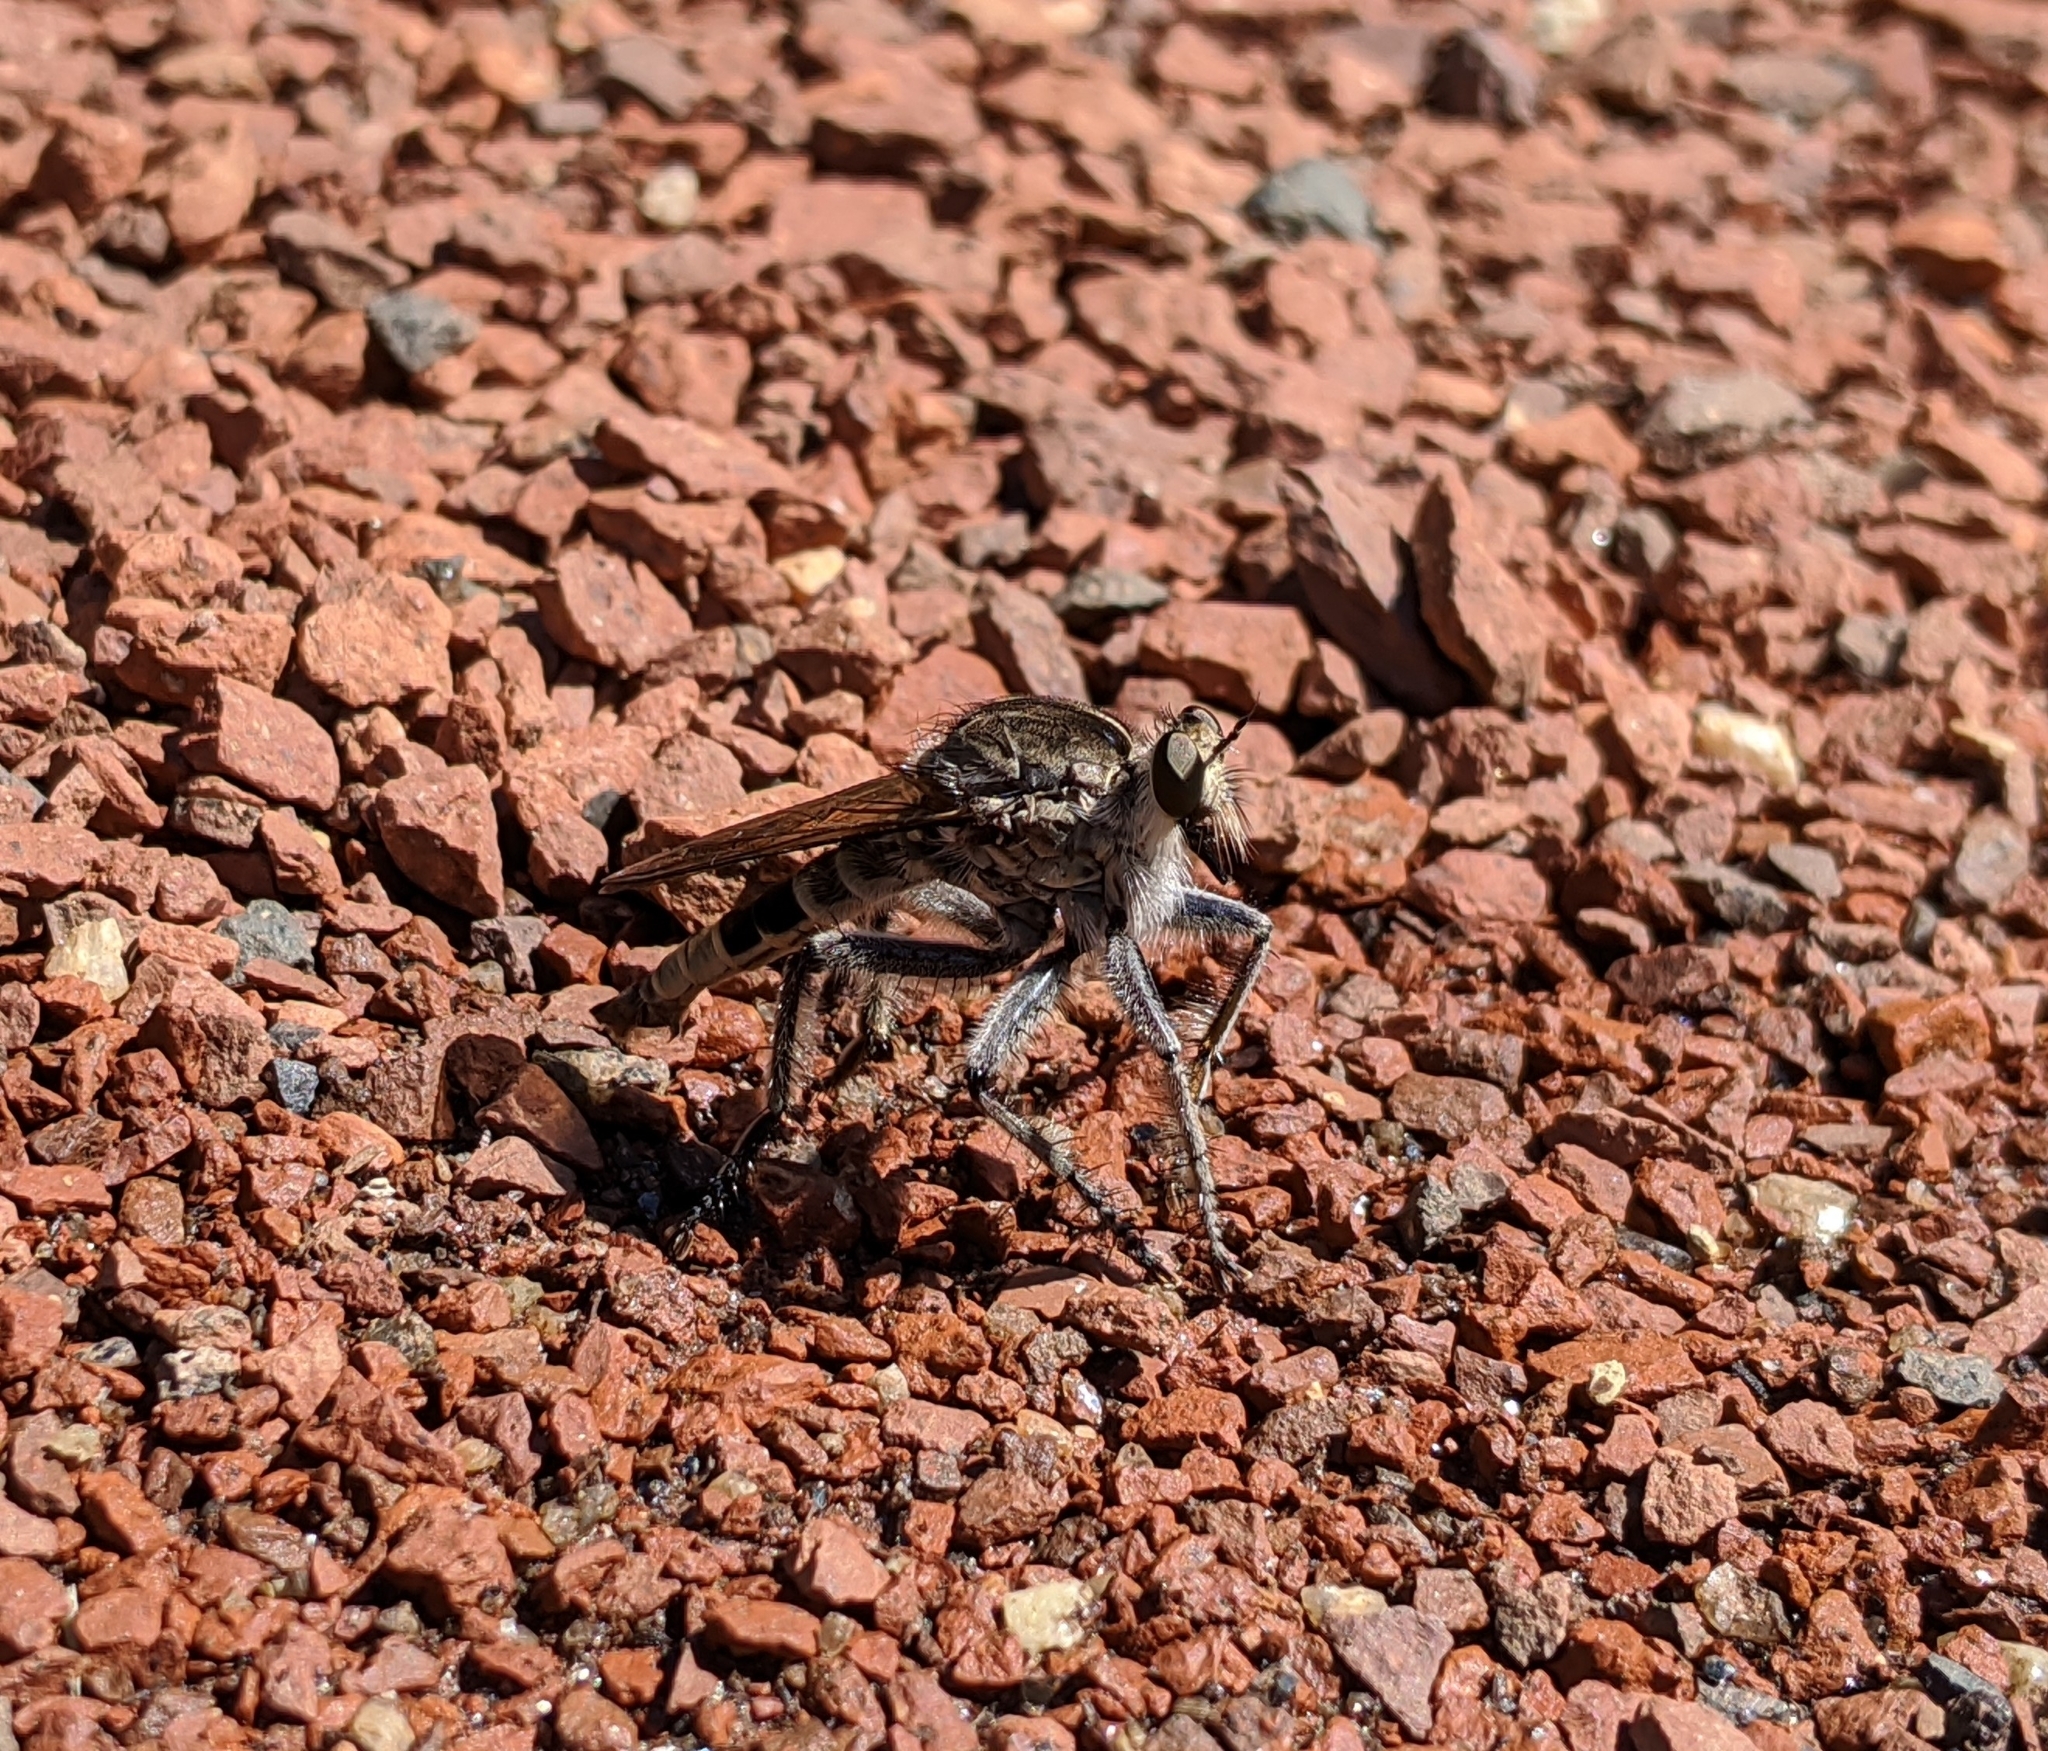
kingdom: Animalia
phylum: Arthropoda
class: Insecta
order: Diptera
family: Asilidae
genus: Triorla
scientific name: Triorla interrupta
